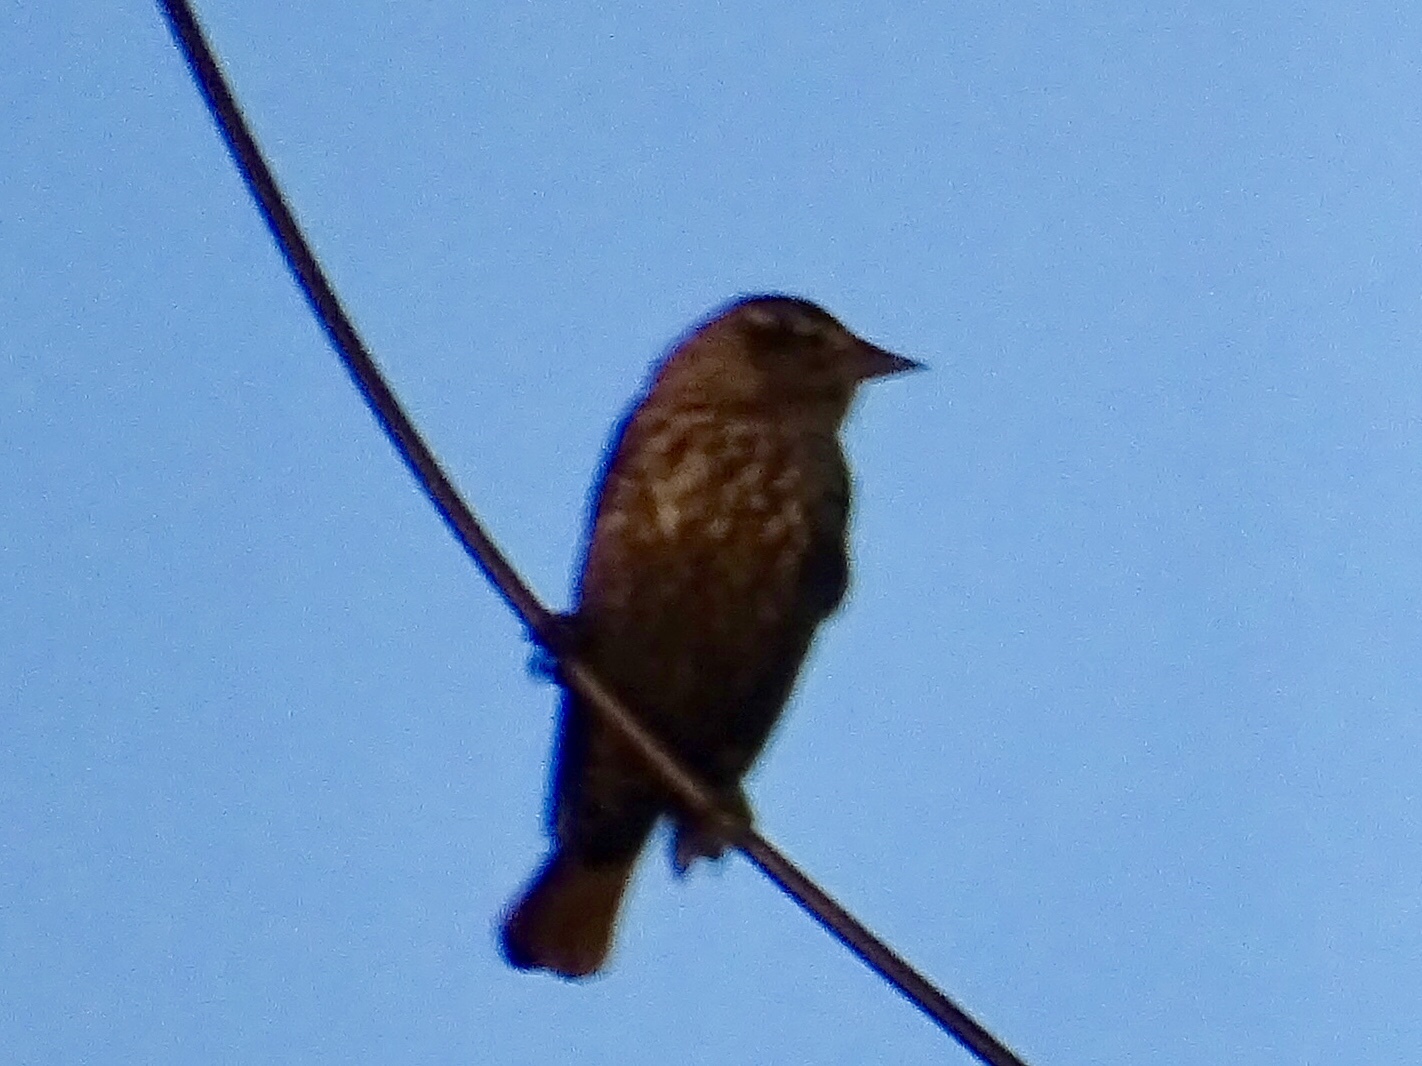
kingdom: Animalia
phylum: Chordata
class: Aves
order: Passeriformes
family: Icteridae
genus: Agelaius
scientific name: Agelaius phoeniceus
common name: Red-winged blackbird
